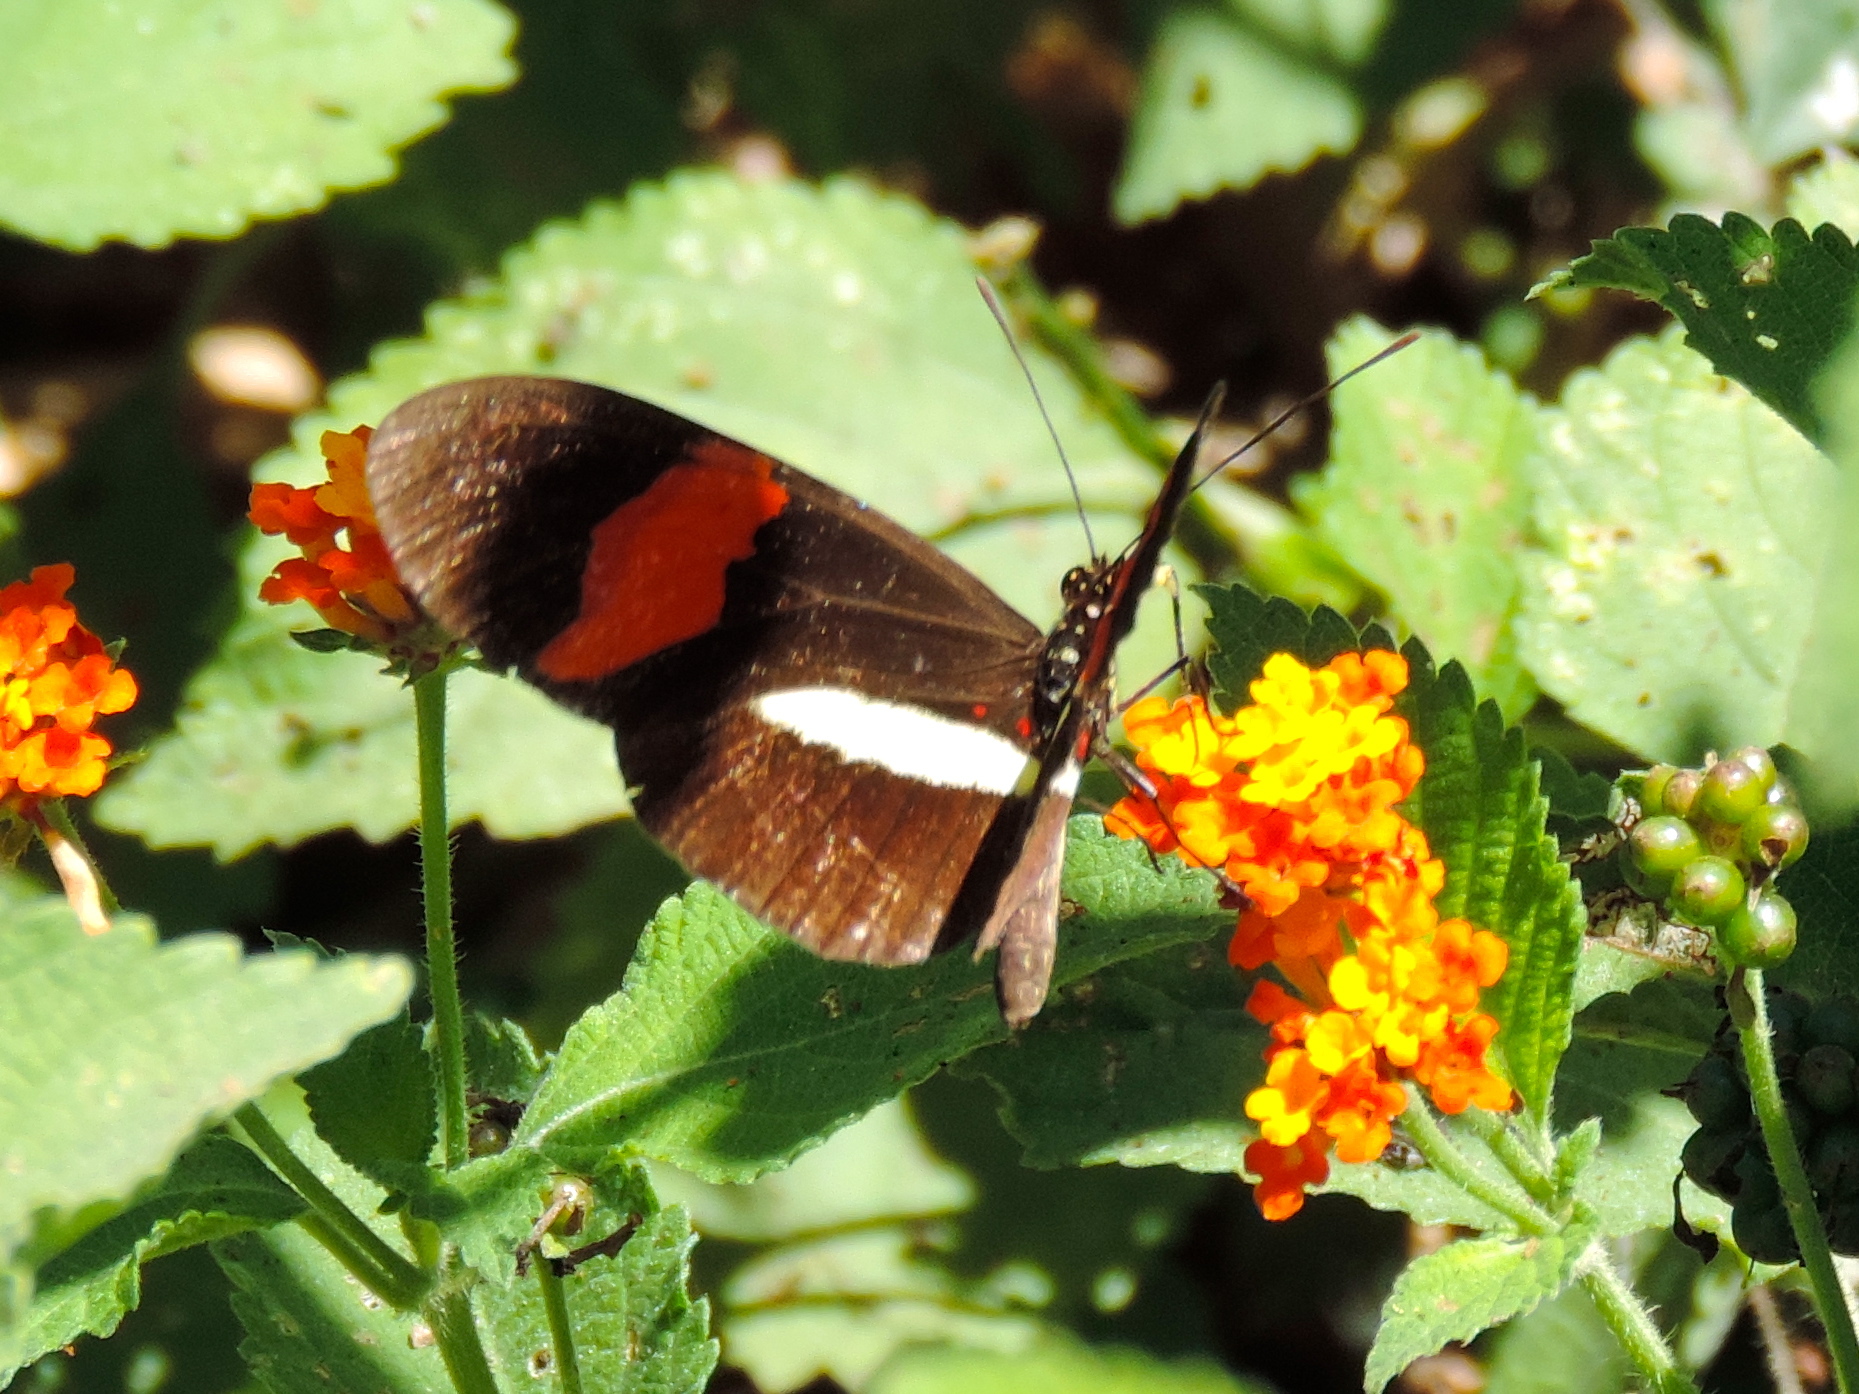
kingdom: Animalia
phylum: Arthropoda
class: Insecta
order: Lepidoptera
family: Nymphalidae
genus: Heliconius
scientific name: Heliconius erato
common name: Common patch longwing
